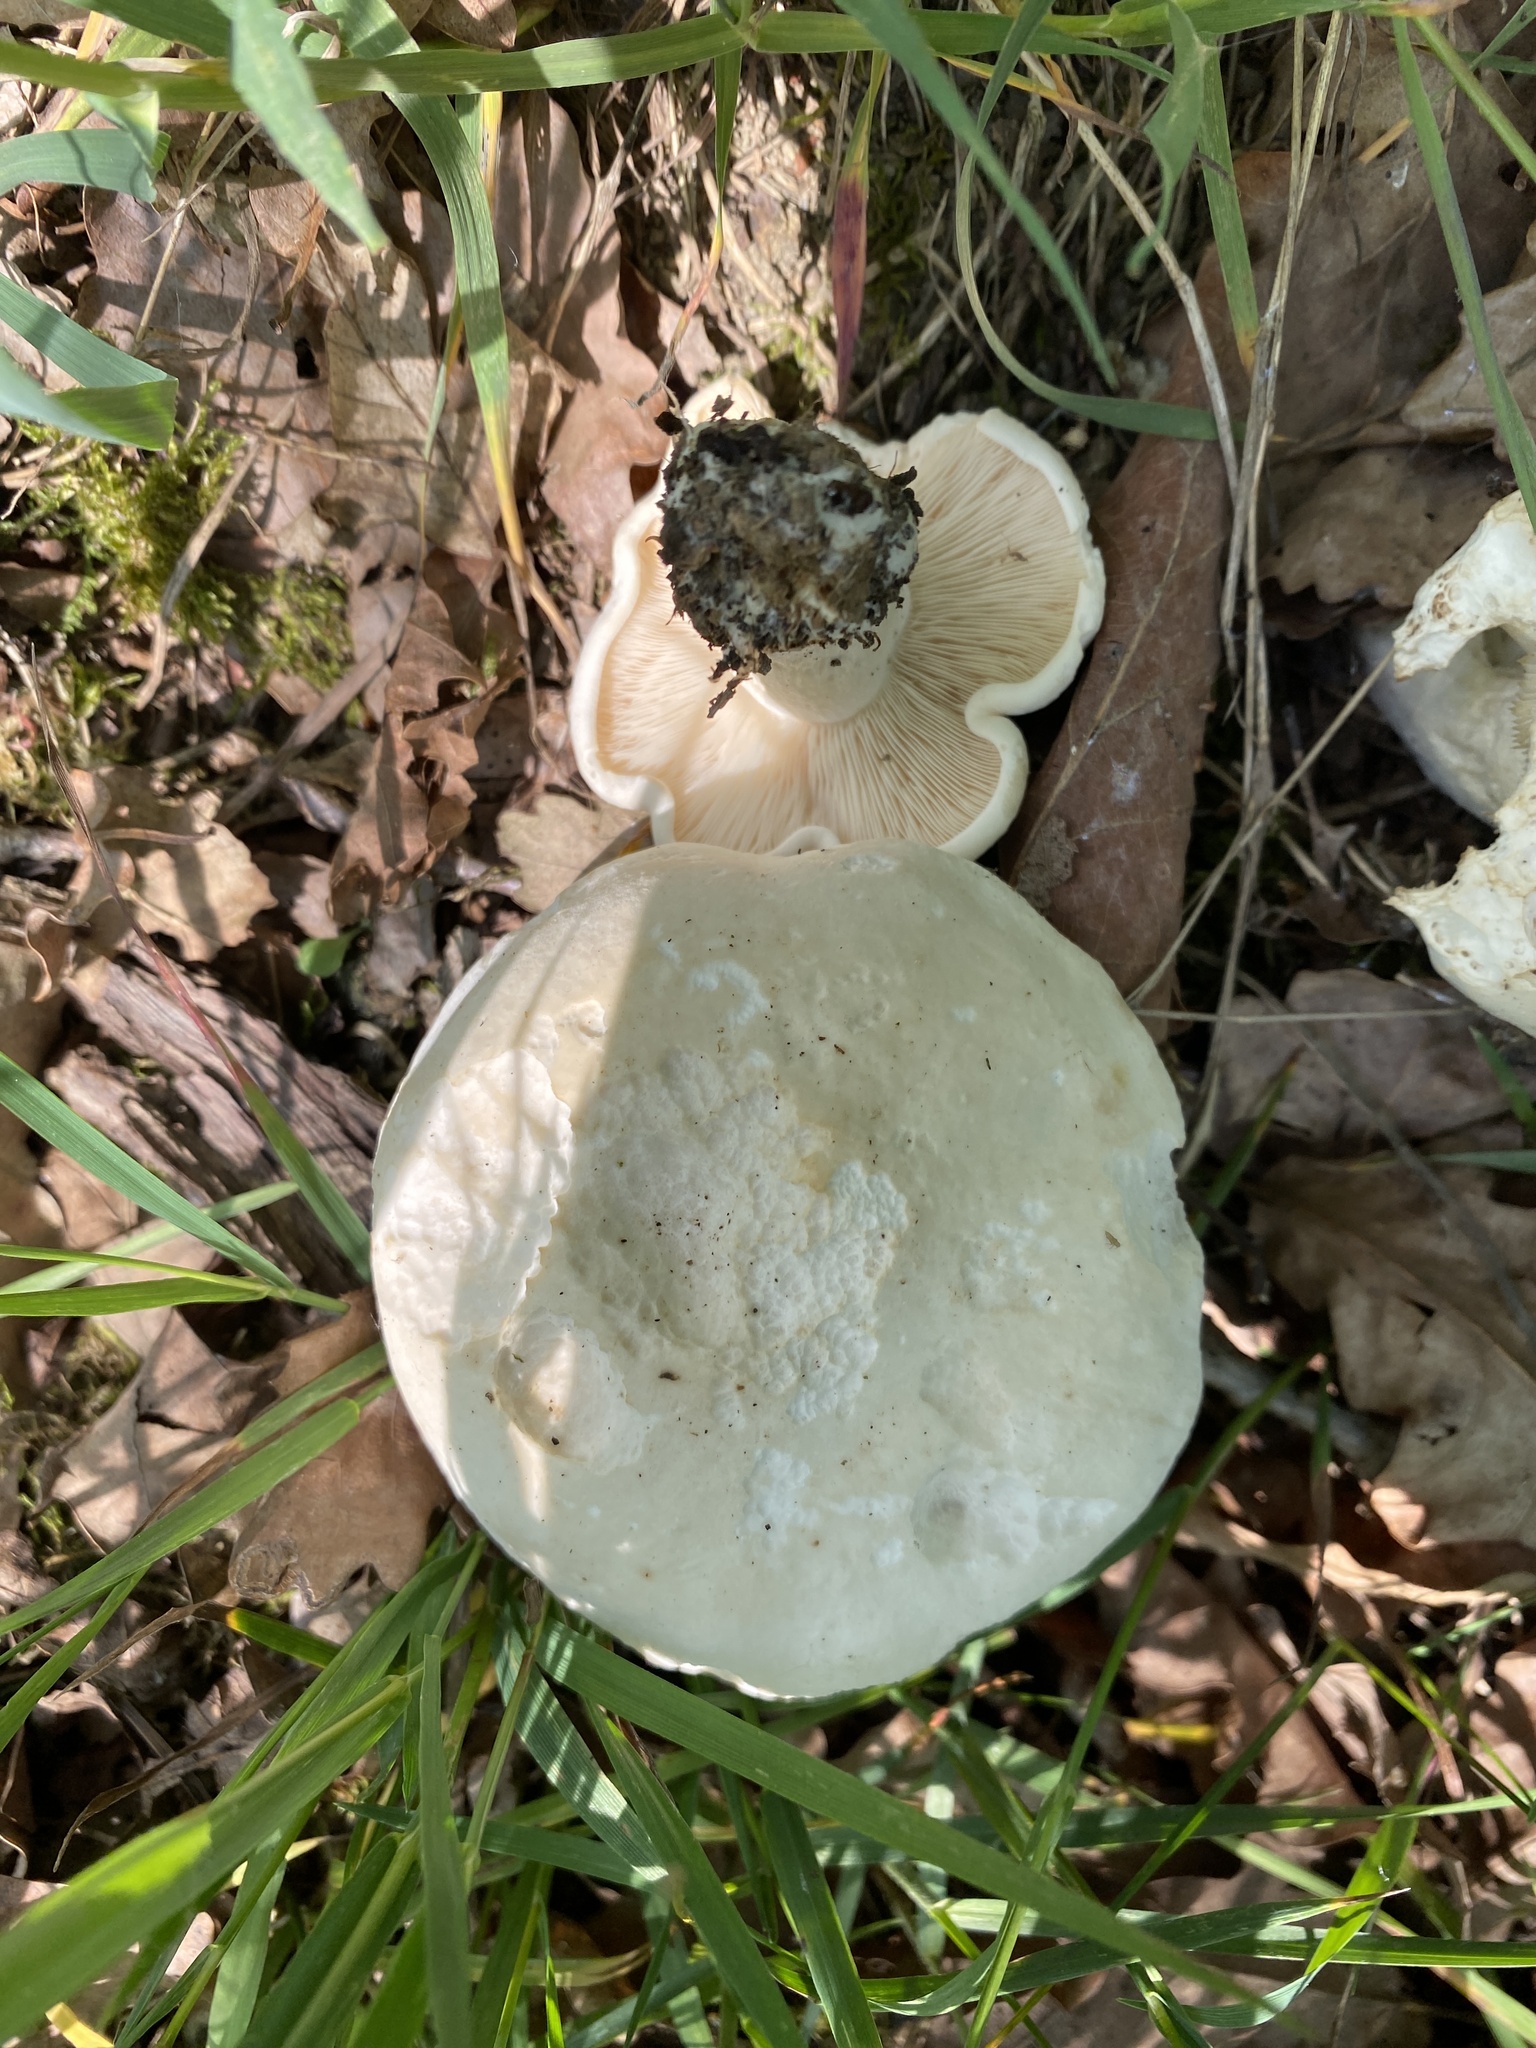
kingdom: Fungi
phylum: Basidiomycota
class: Agaricomycetes
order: Agaricales
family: Lyophyllaceae
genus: Calocybe
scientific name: Calocybe gambosa
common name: St. george's mushroom
